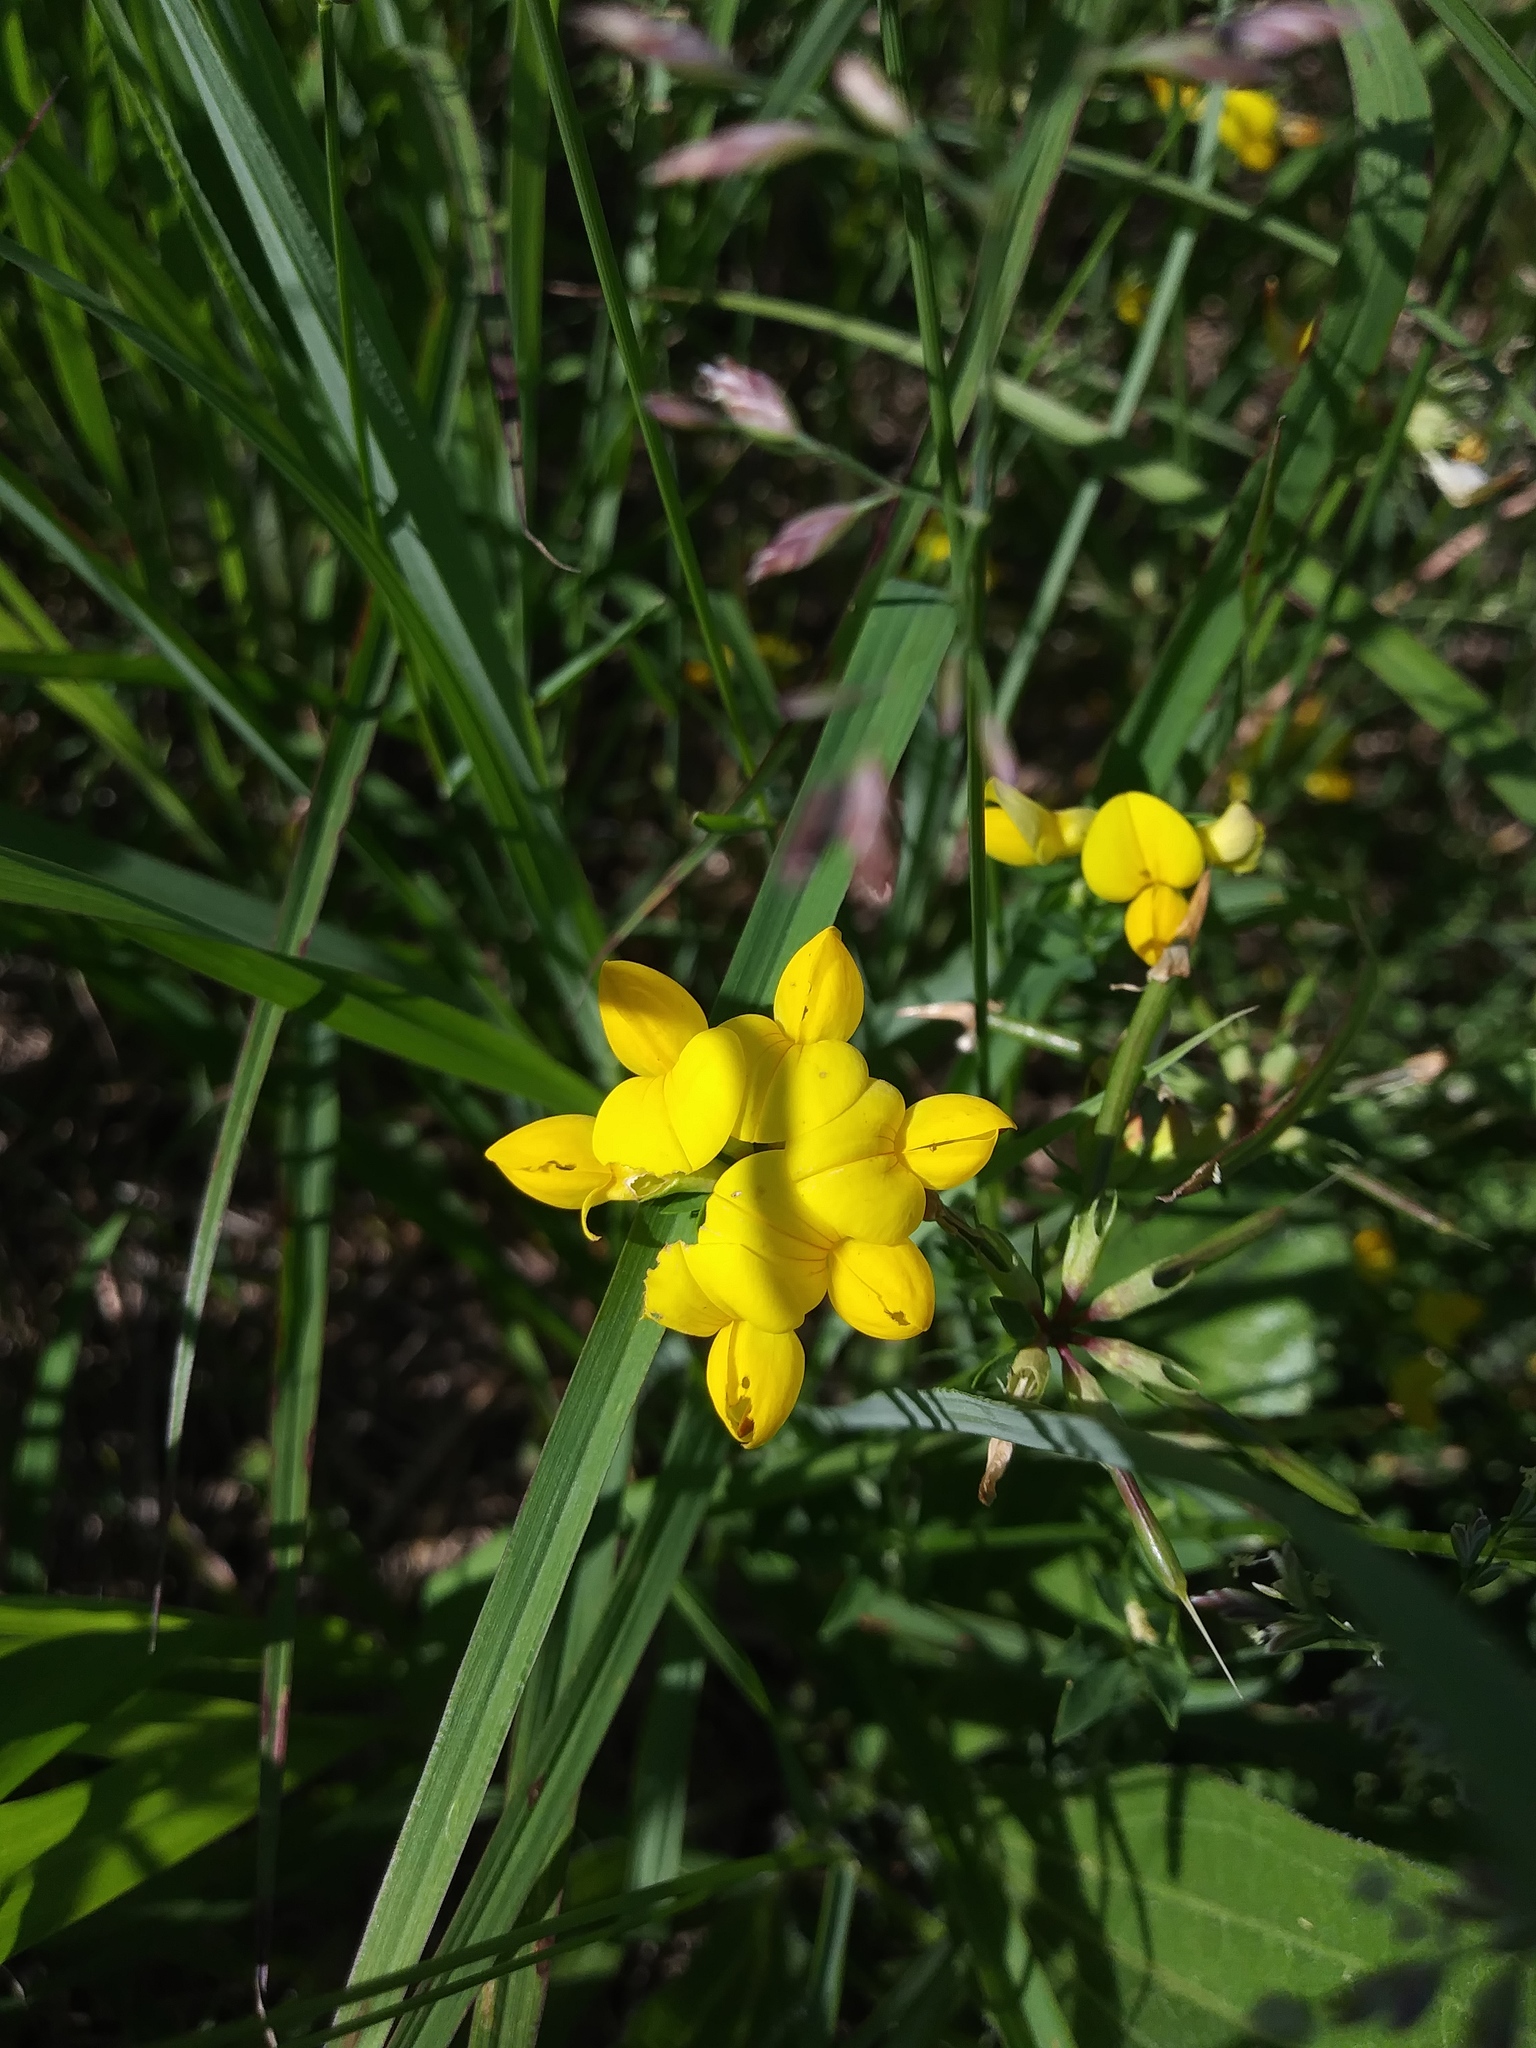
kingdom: Plantae
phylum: Tracheophyta
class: Magnoliopsida
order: Fabales
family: Fabaceae
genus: Lotus
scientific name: Lotus corniculatus
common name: Common bird's-foot-trefoil
